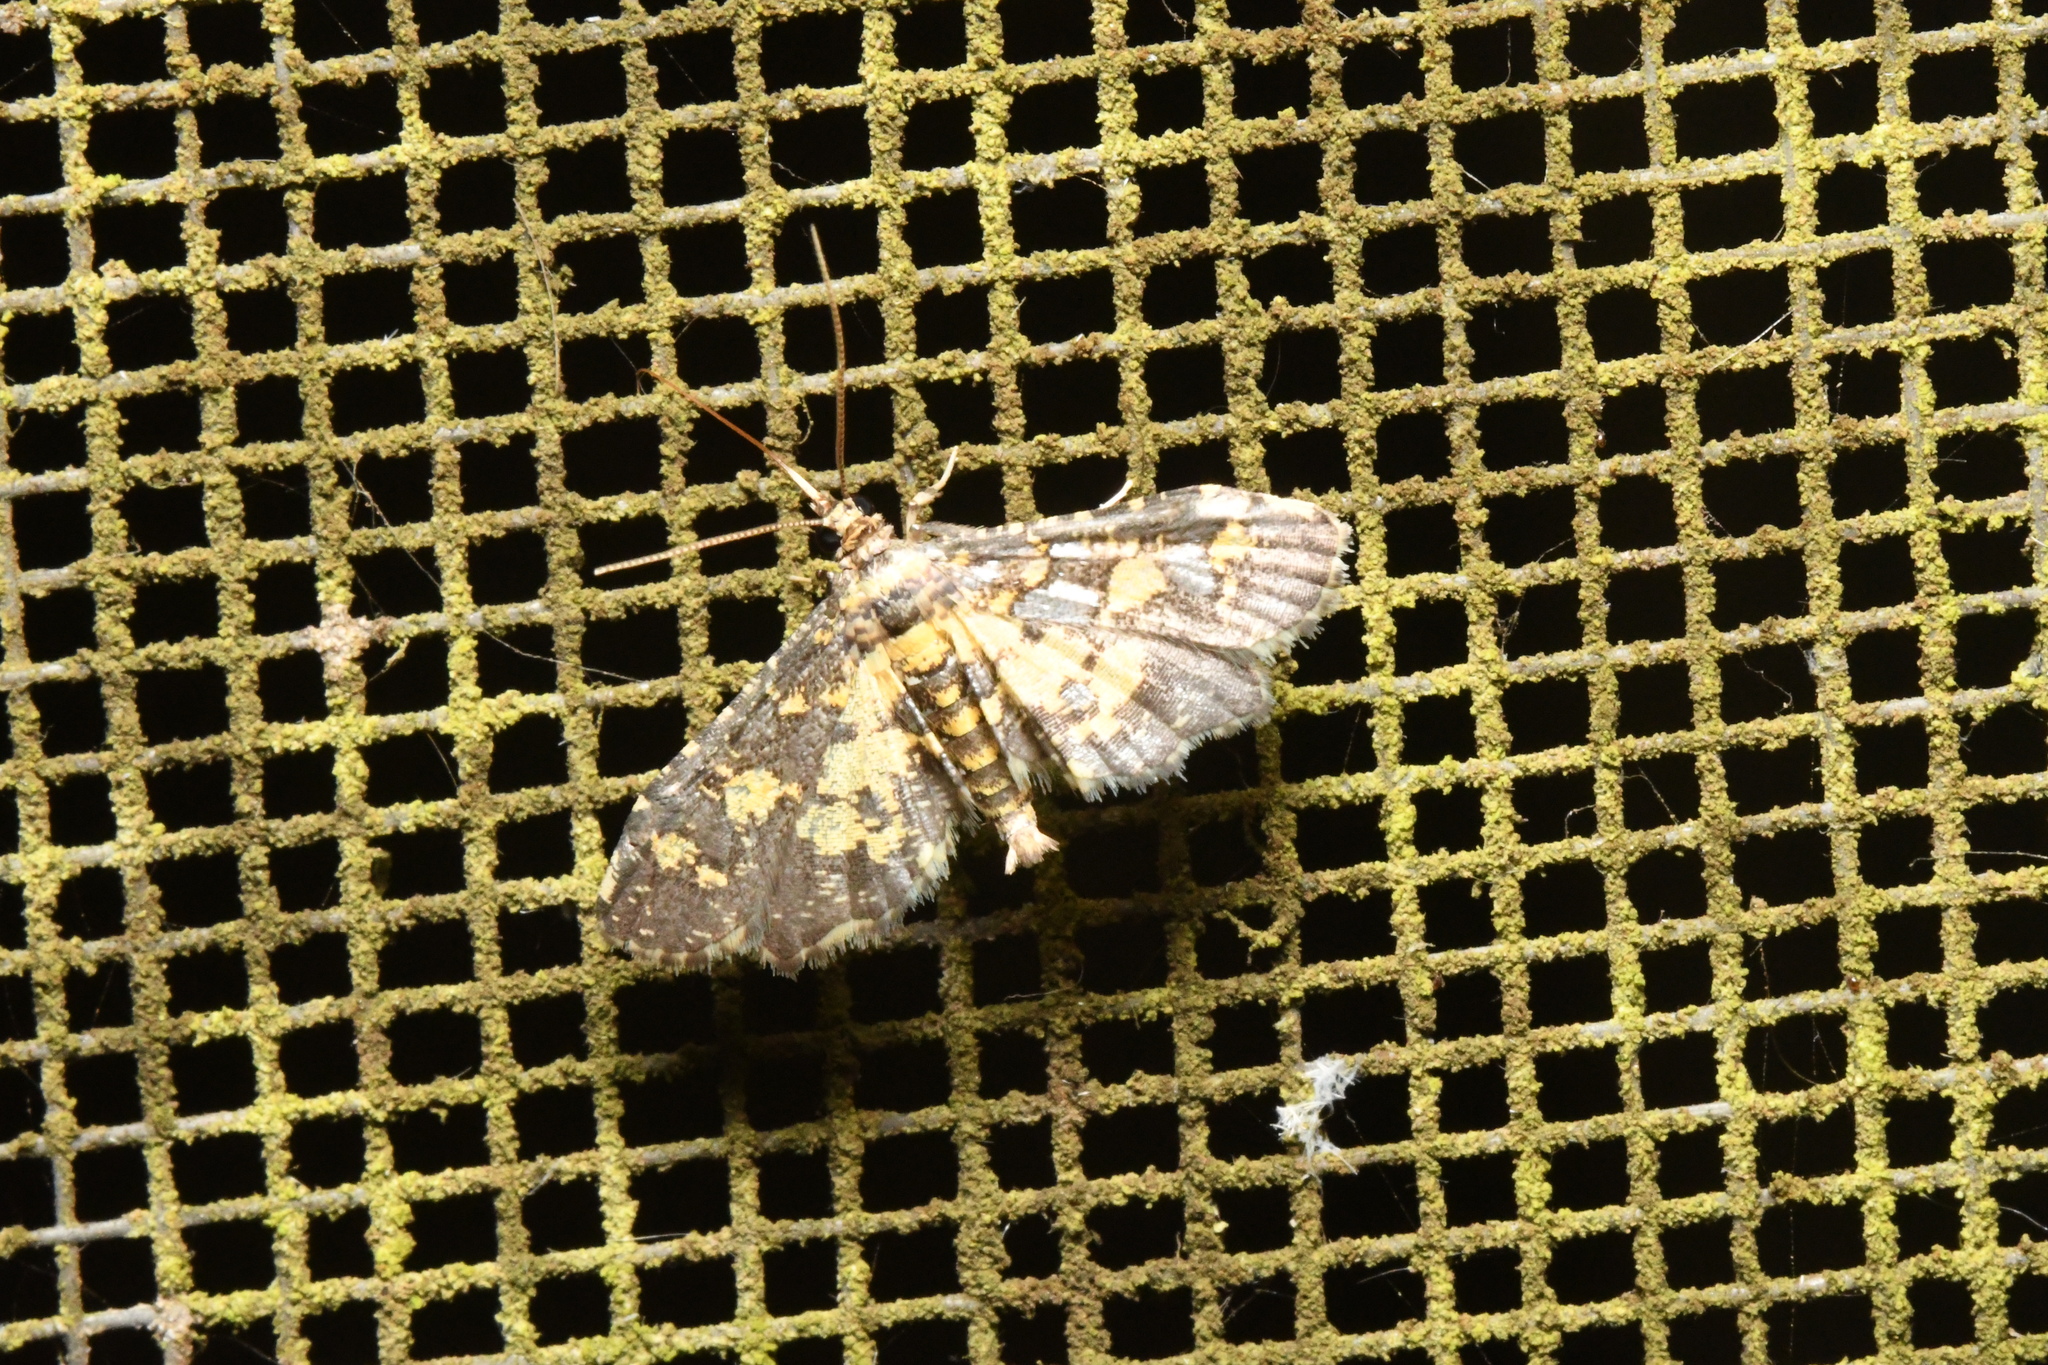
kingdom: Animalia
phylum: Arthropoda
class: Insecta
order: Lepidoptera
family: Crambidae
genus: Eurrhyparodes
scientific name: Eurrhyparodes bracteolalis
